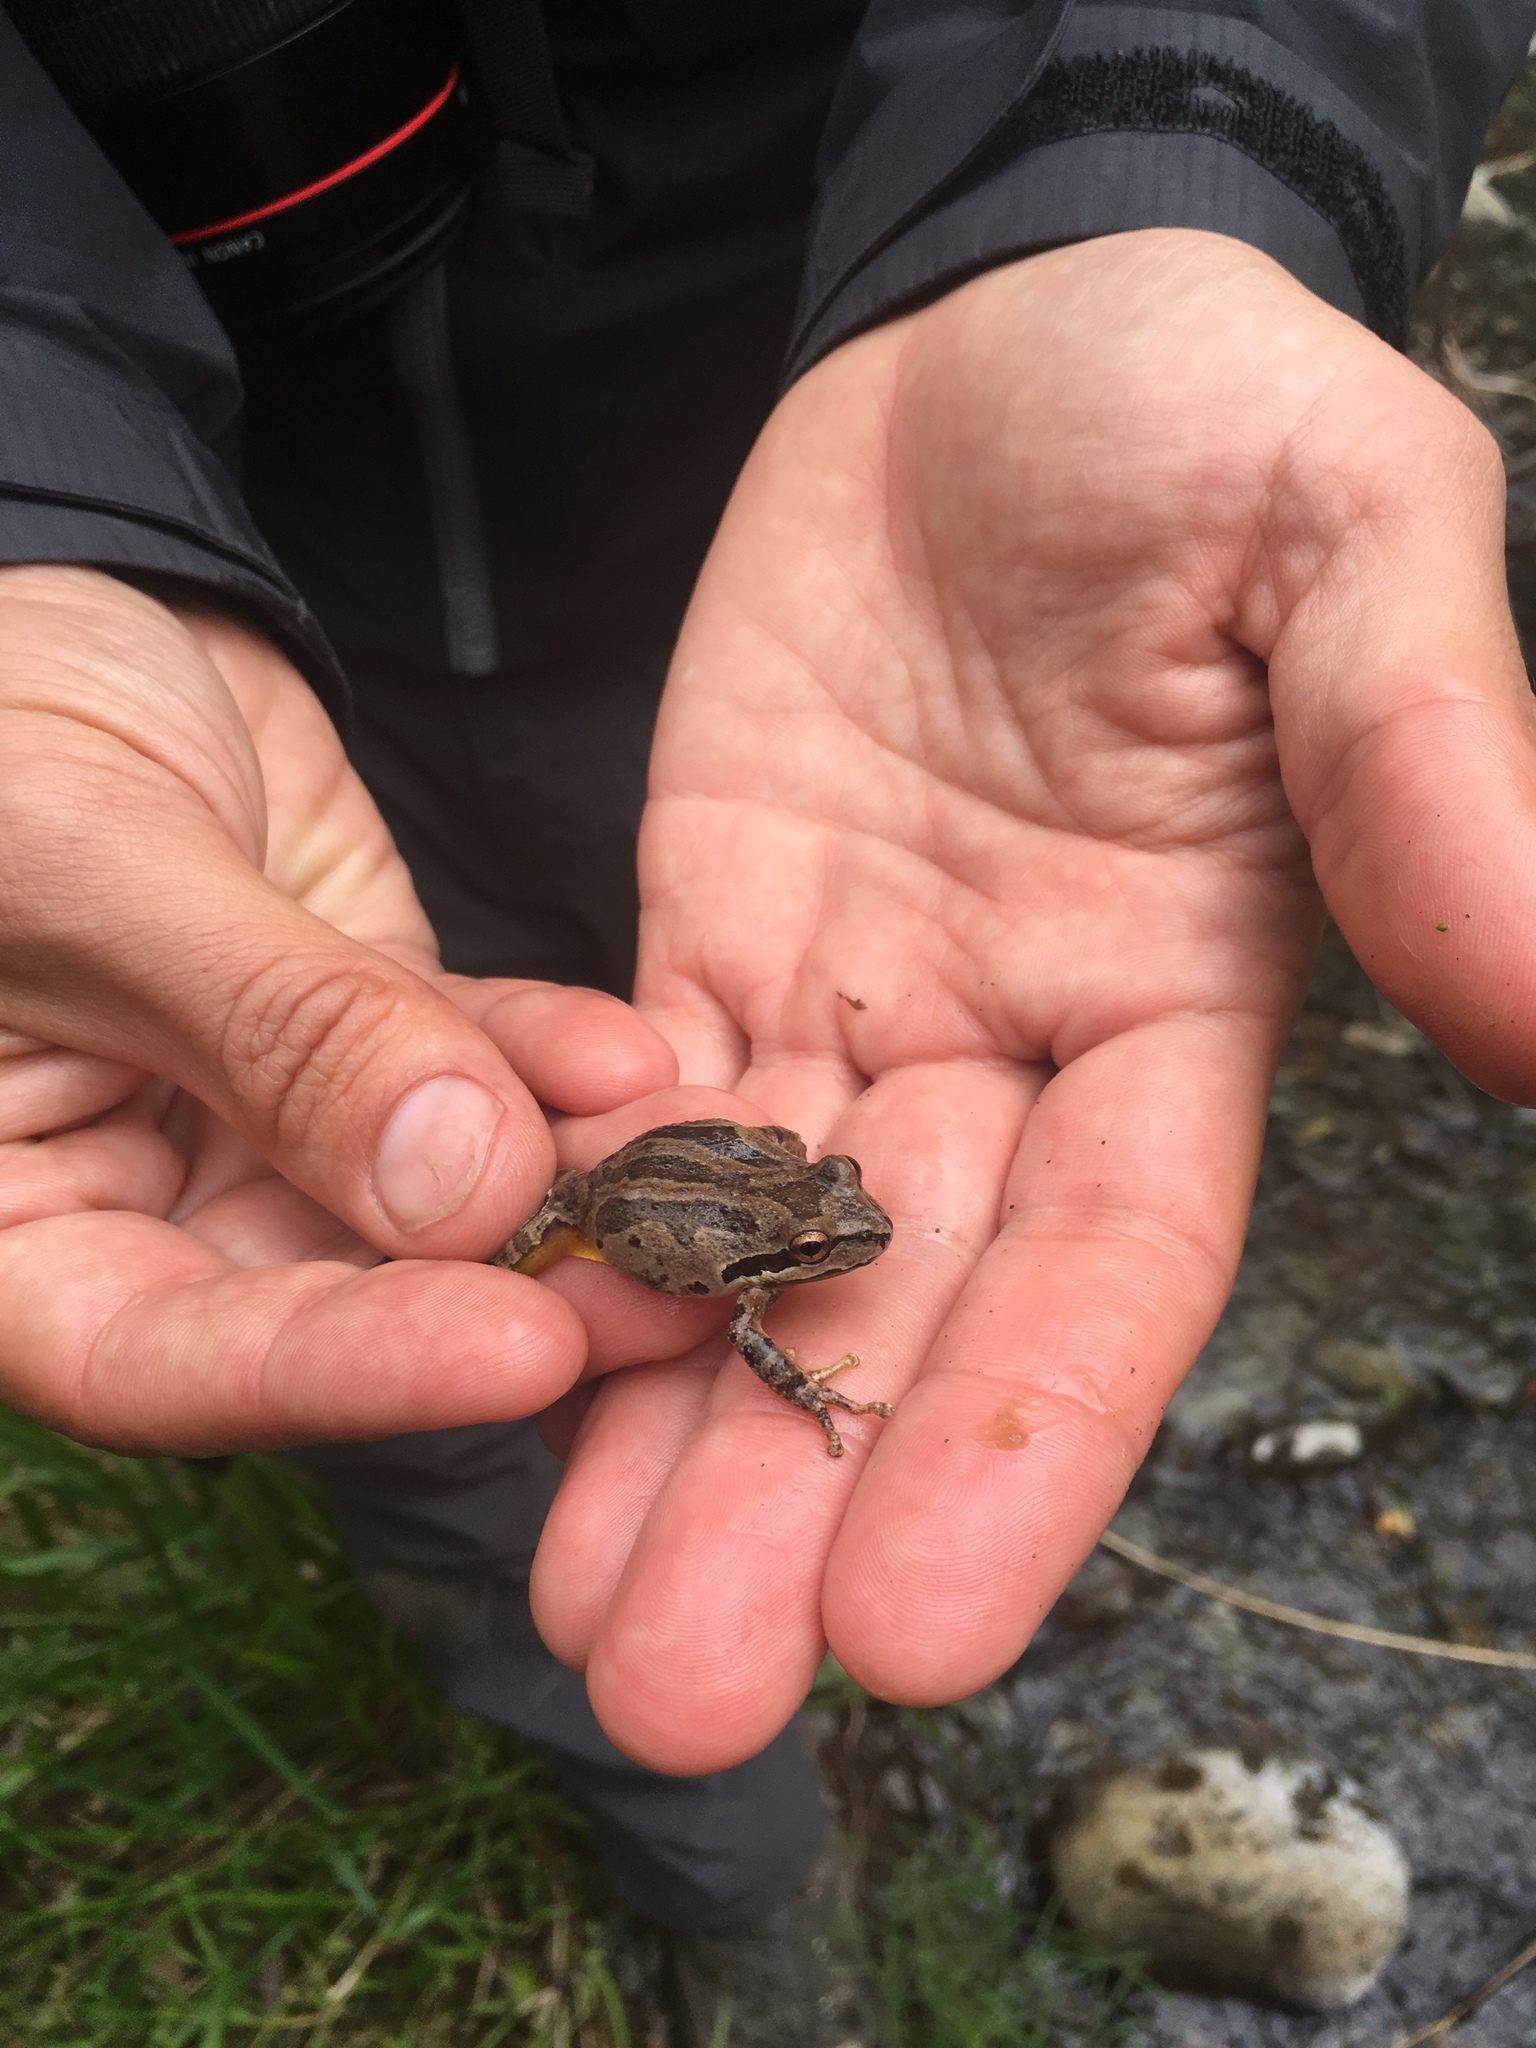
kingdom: Animalia
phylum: Chordata
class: Amphibia
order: Anura
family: Hylidae
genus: Pseudacris
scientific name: Pseudacris regilla
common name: Pacific chorus frog
